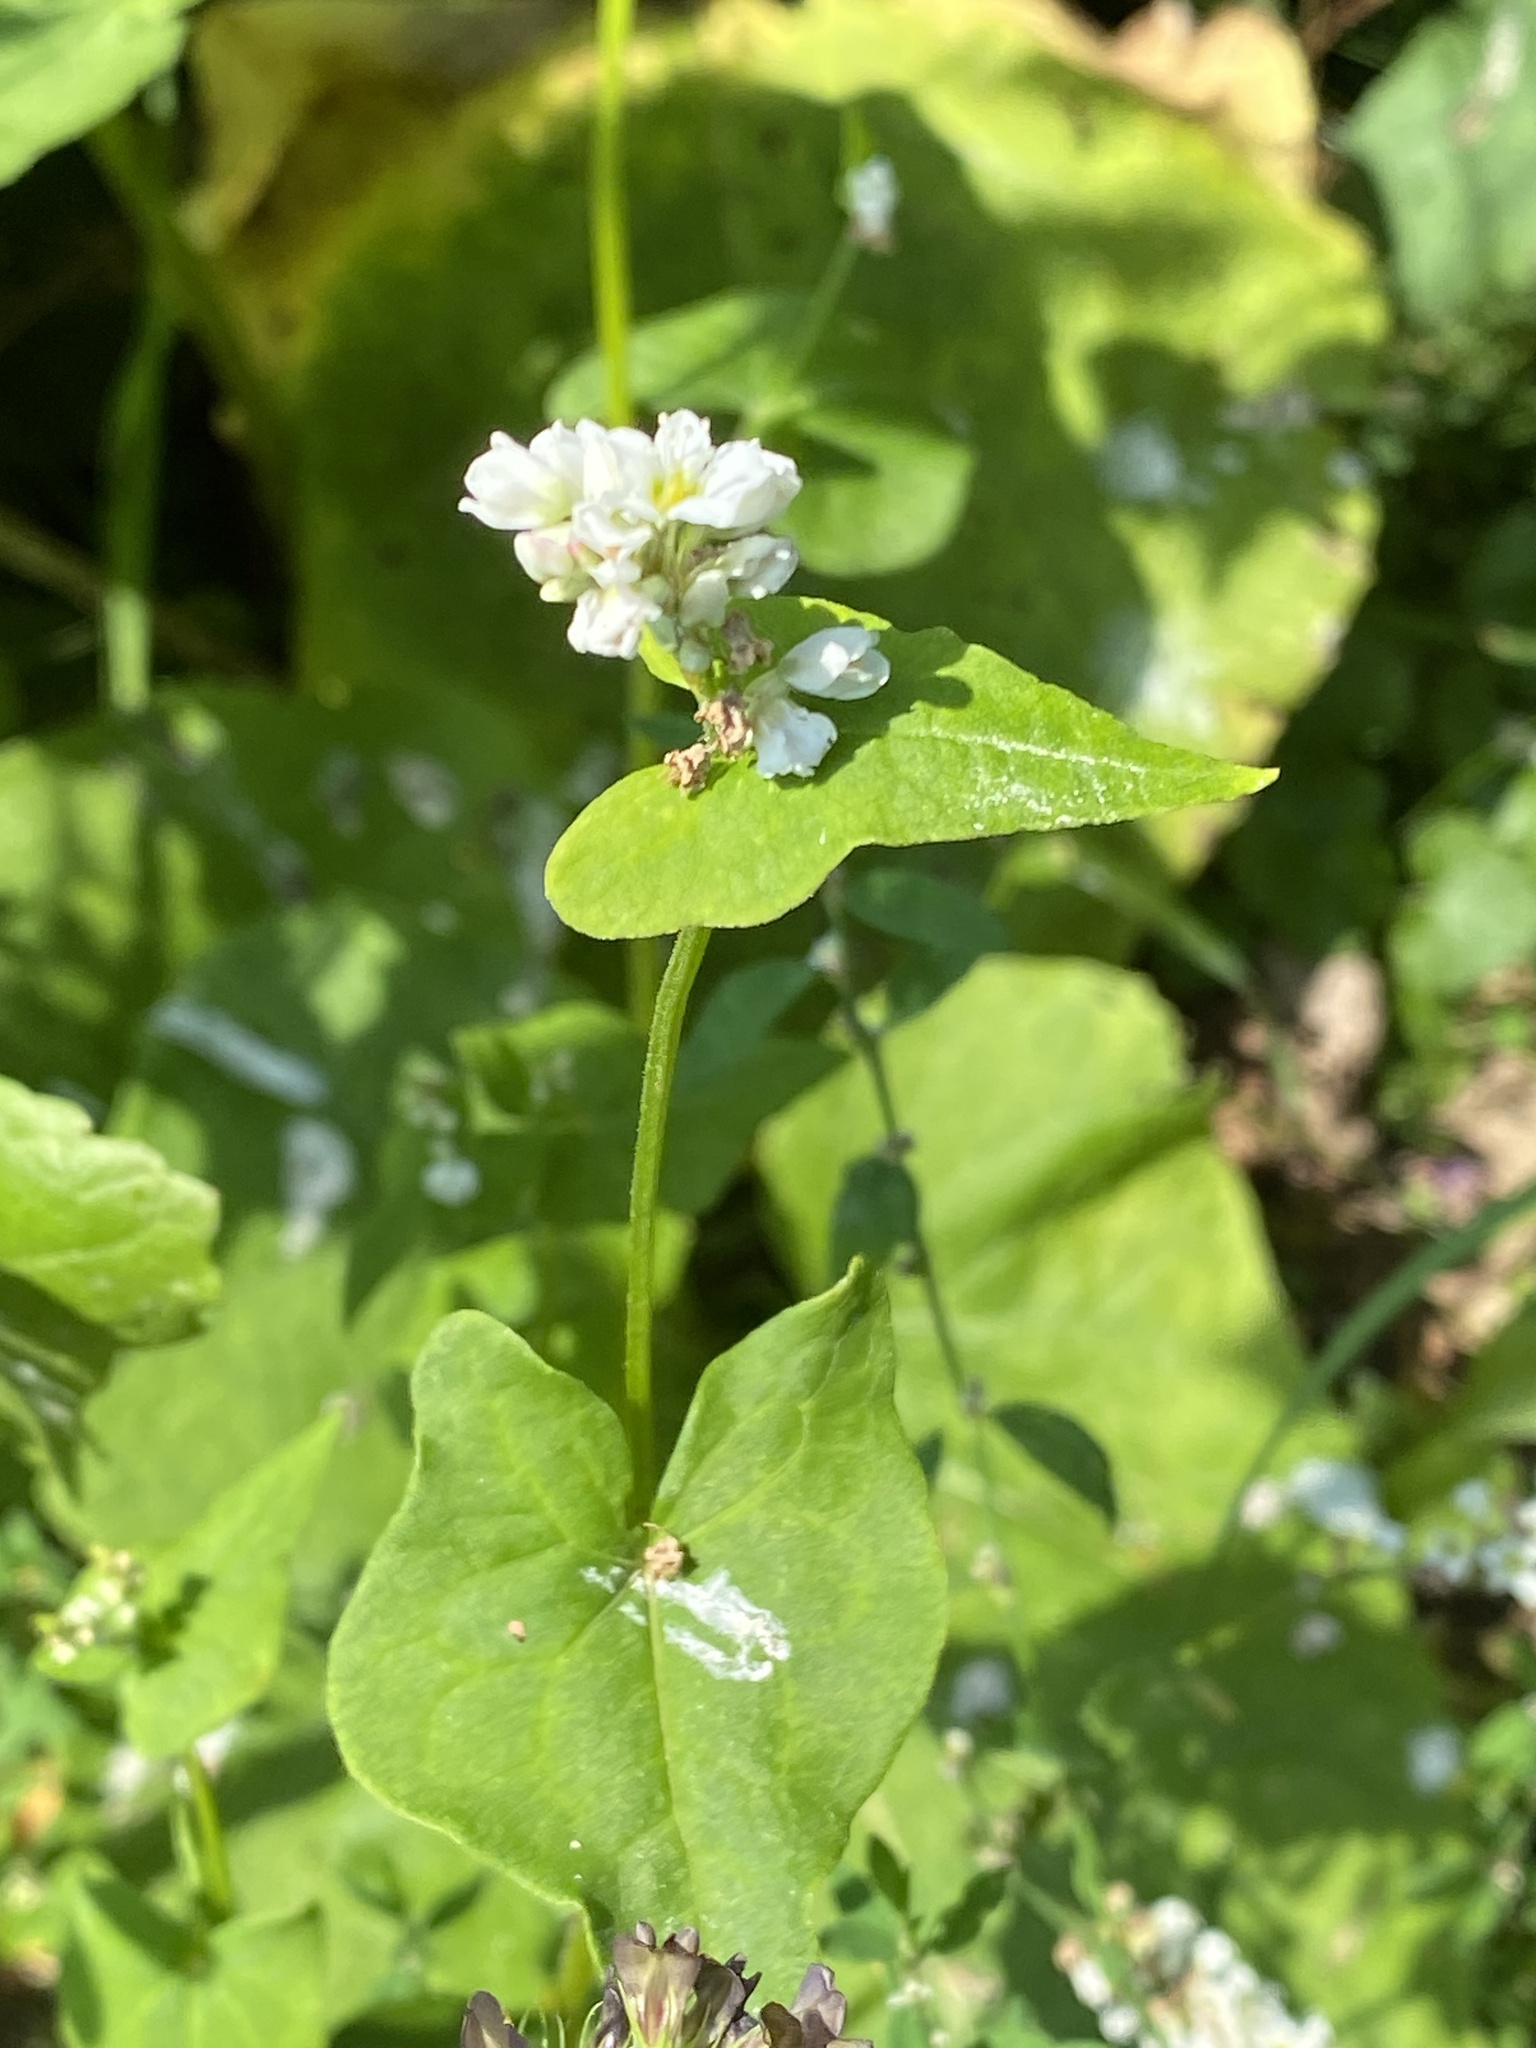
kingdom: Plantae
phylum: Tracheophyta
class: Magnoliopsida
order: Caryophyllales
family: Polygonaceae
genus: Fagopyrum
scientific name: Fagopyrum esculentum
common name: Buckwheat
